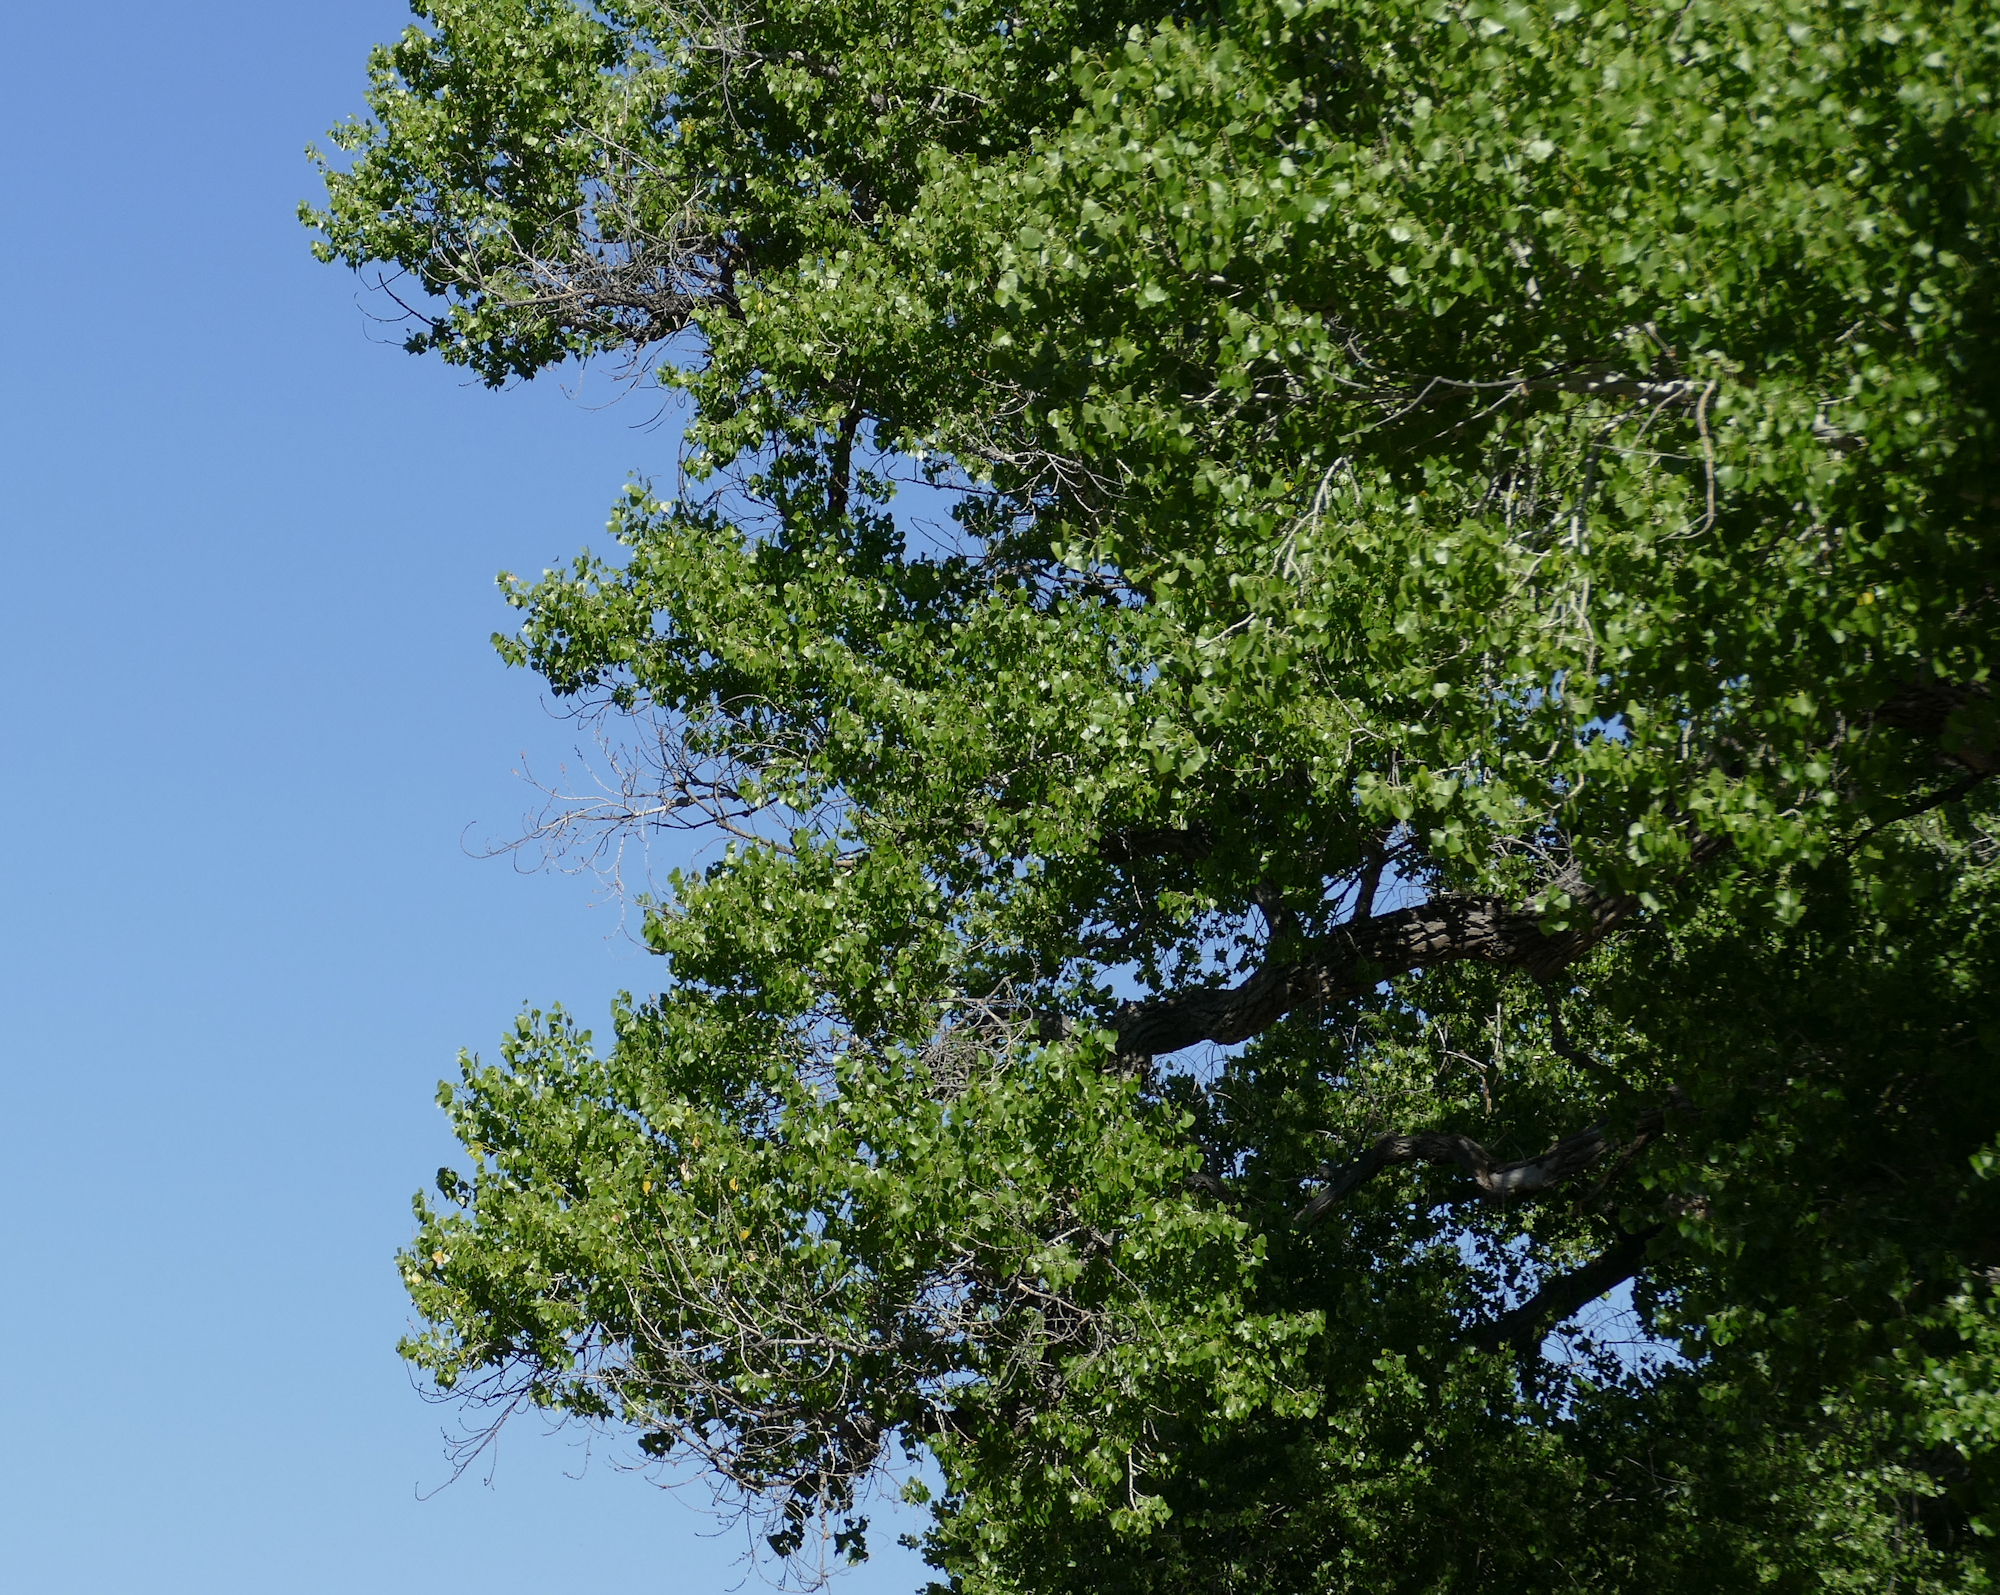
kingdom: Plantae
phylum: Tracheophyta
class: Magnoliopsida
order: Malpighiales
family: Salicaceae
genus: Populus
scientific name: Populus fremontii
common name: Fremont's cottonwood
